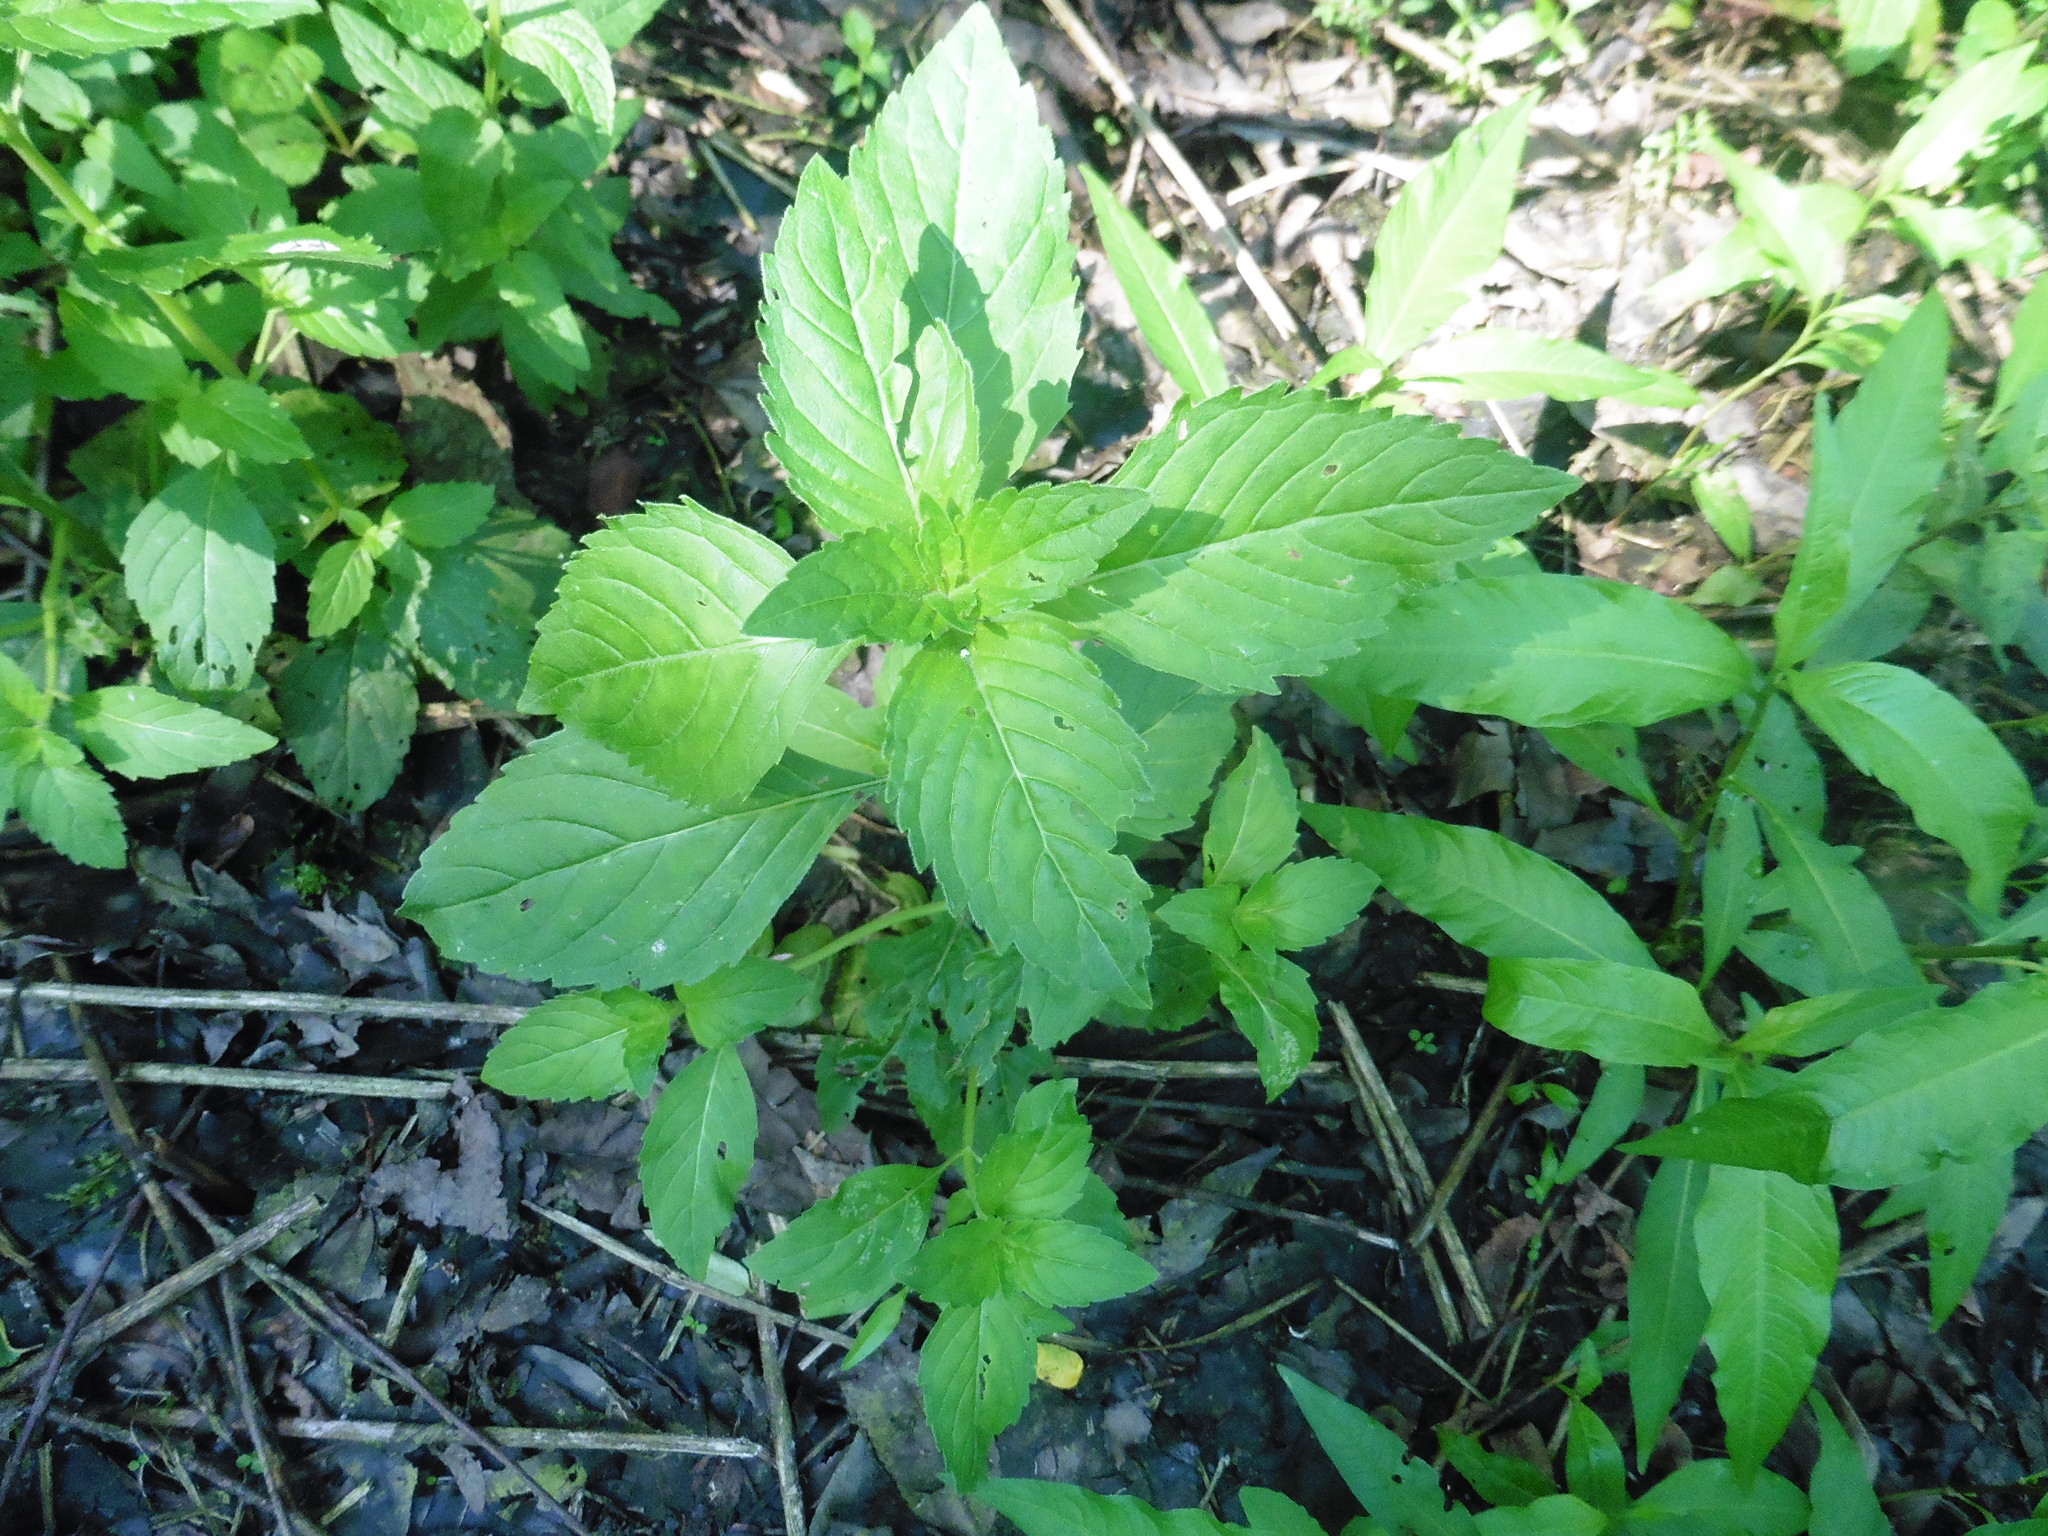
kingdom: Plantae
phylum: Tracheophyta
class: Magnoliopsida
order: Lamiales
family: Lamiaceae
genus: Mentha
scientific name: Mentha arvensis
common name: Corn mint
